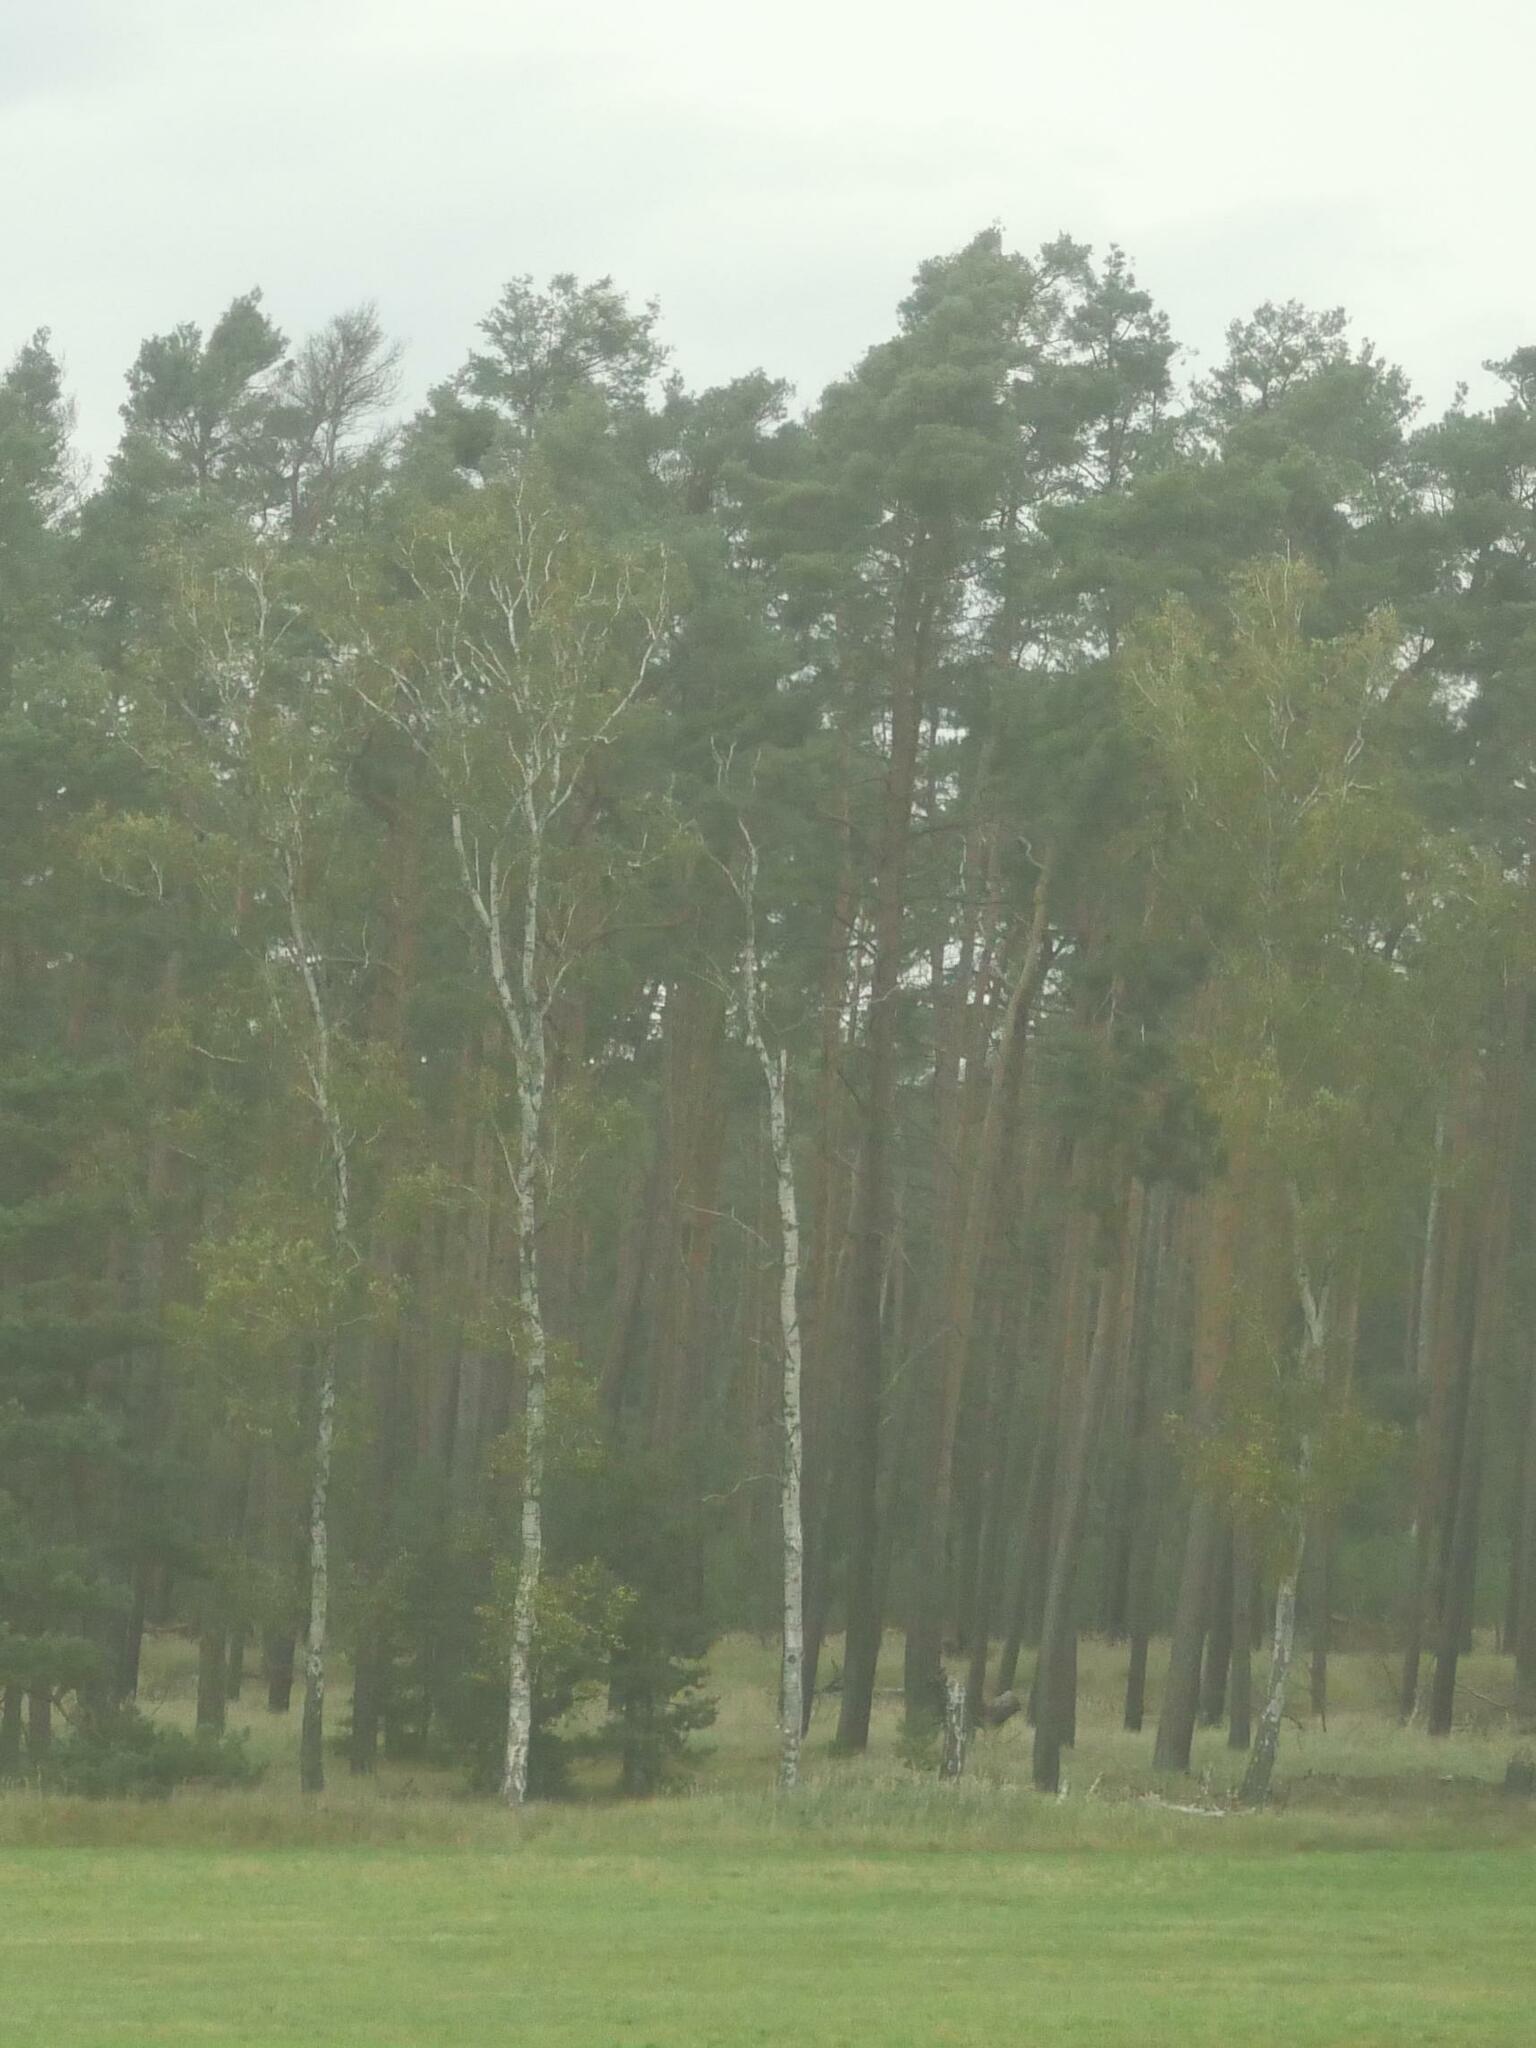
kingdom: Plantae
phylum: Tracheophyta
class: Magnoliopsida
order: Fagales
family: Betulaceae
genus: Betula
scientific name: Betula pendula
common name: Silver birch
